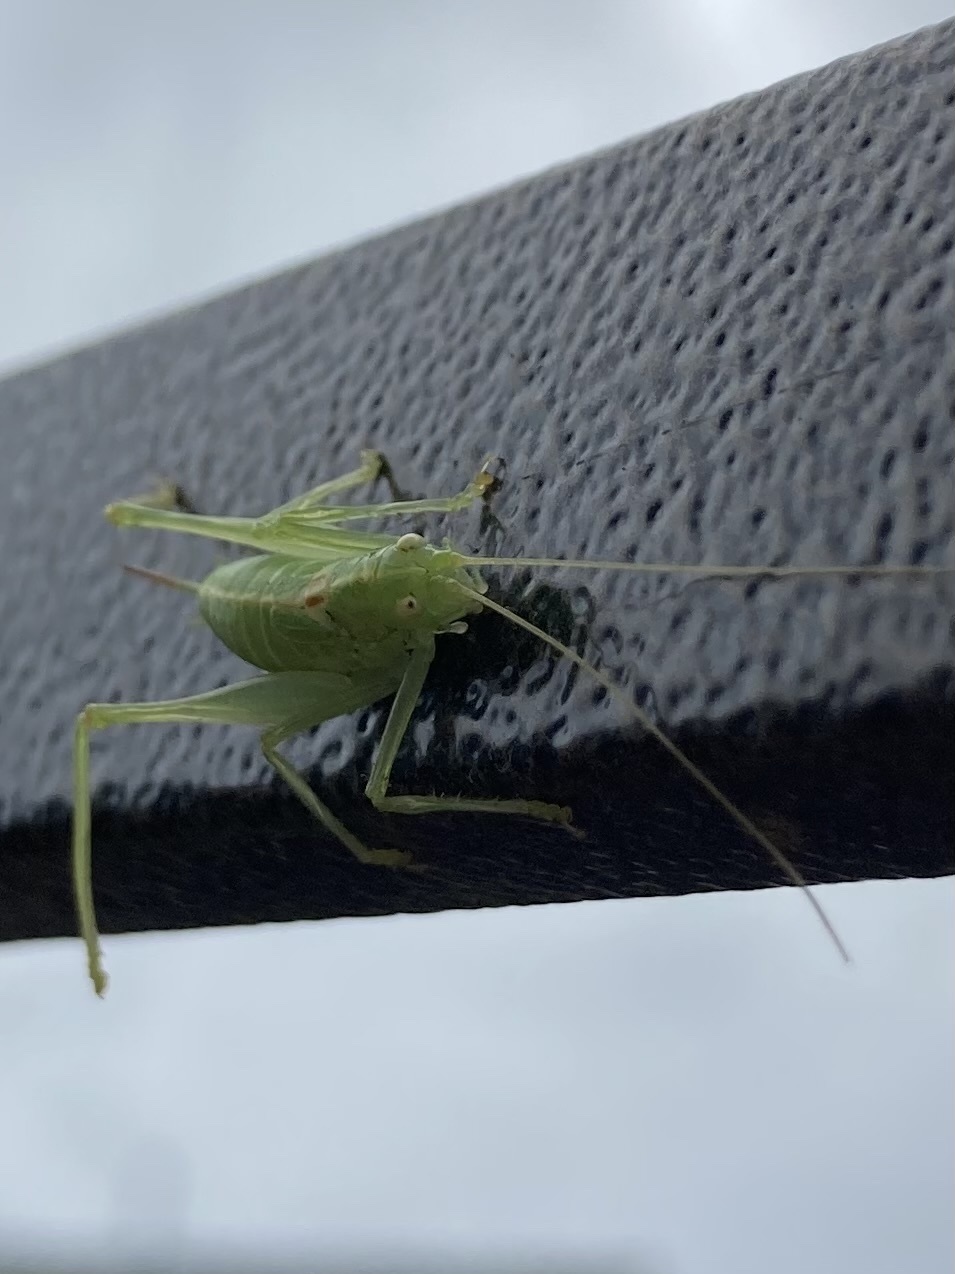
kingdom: Animalia
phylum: Arthropoda
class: Insecta
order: Orthoptera
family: Tettigoniidae
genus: Meconema
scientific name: Meconema meridionale
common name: Southern oak bush-cricket
